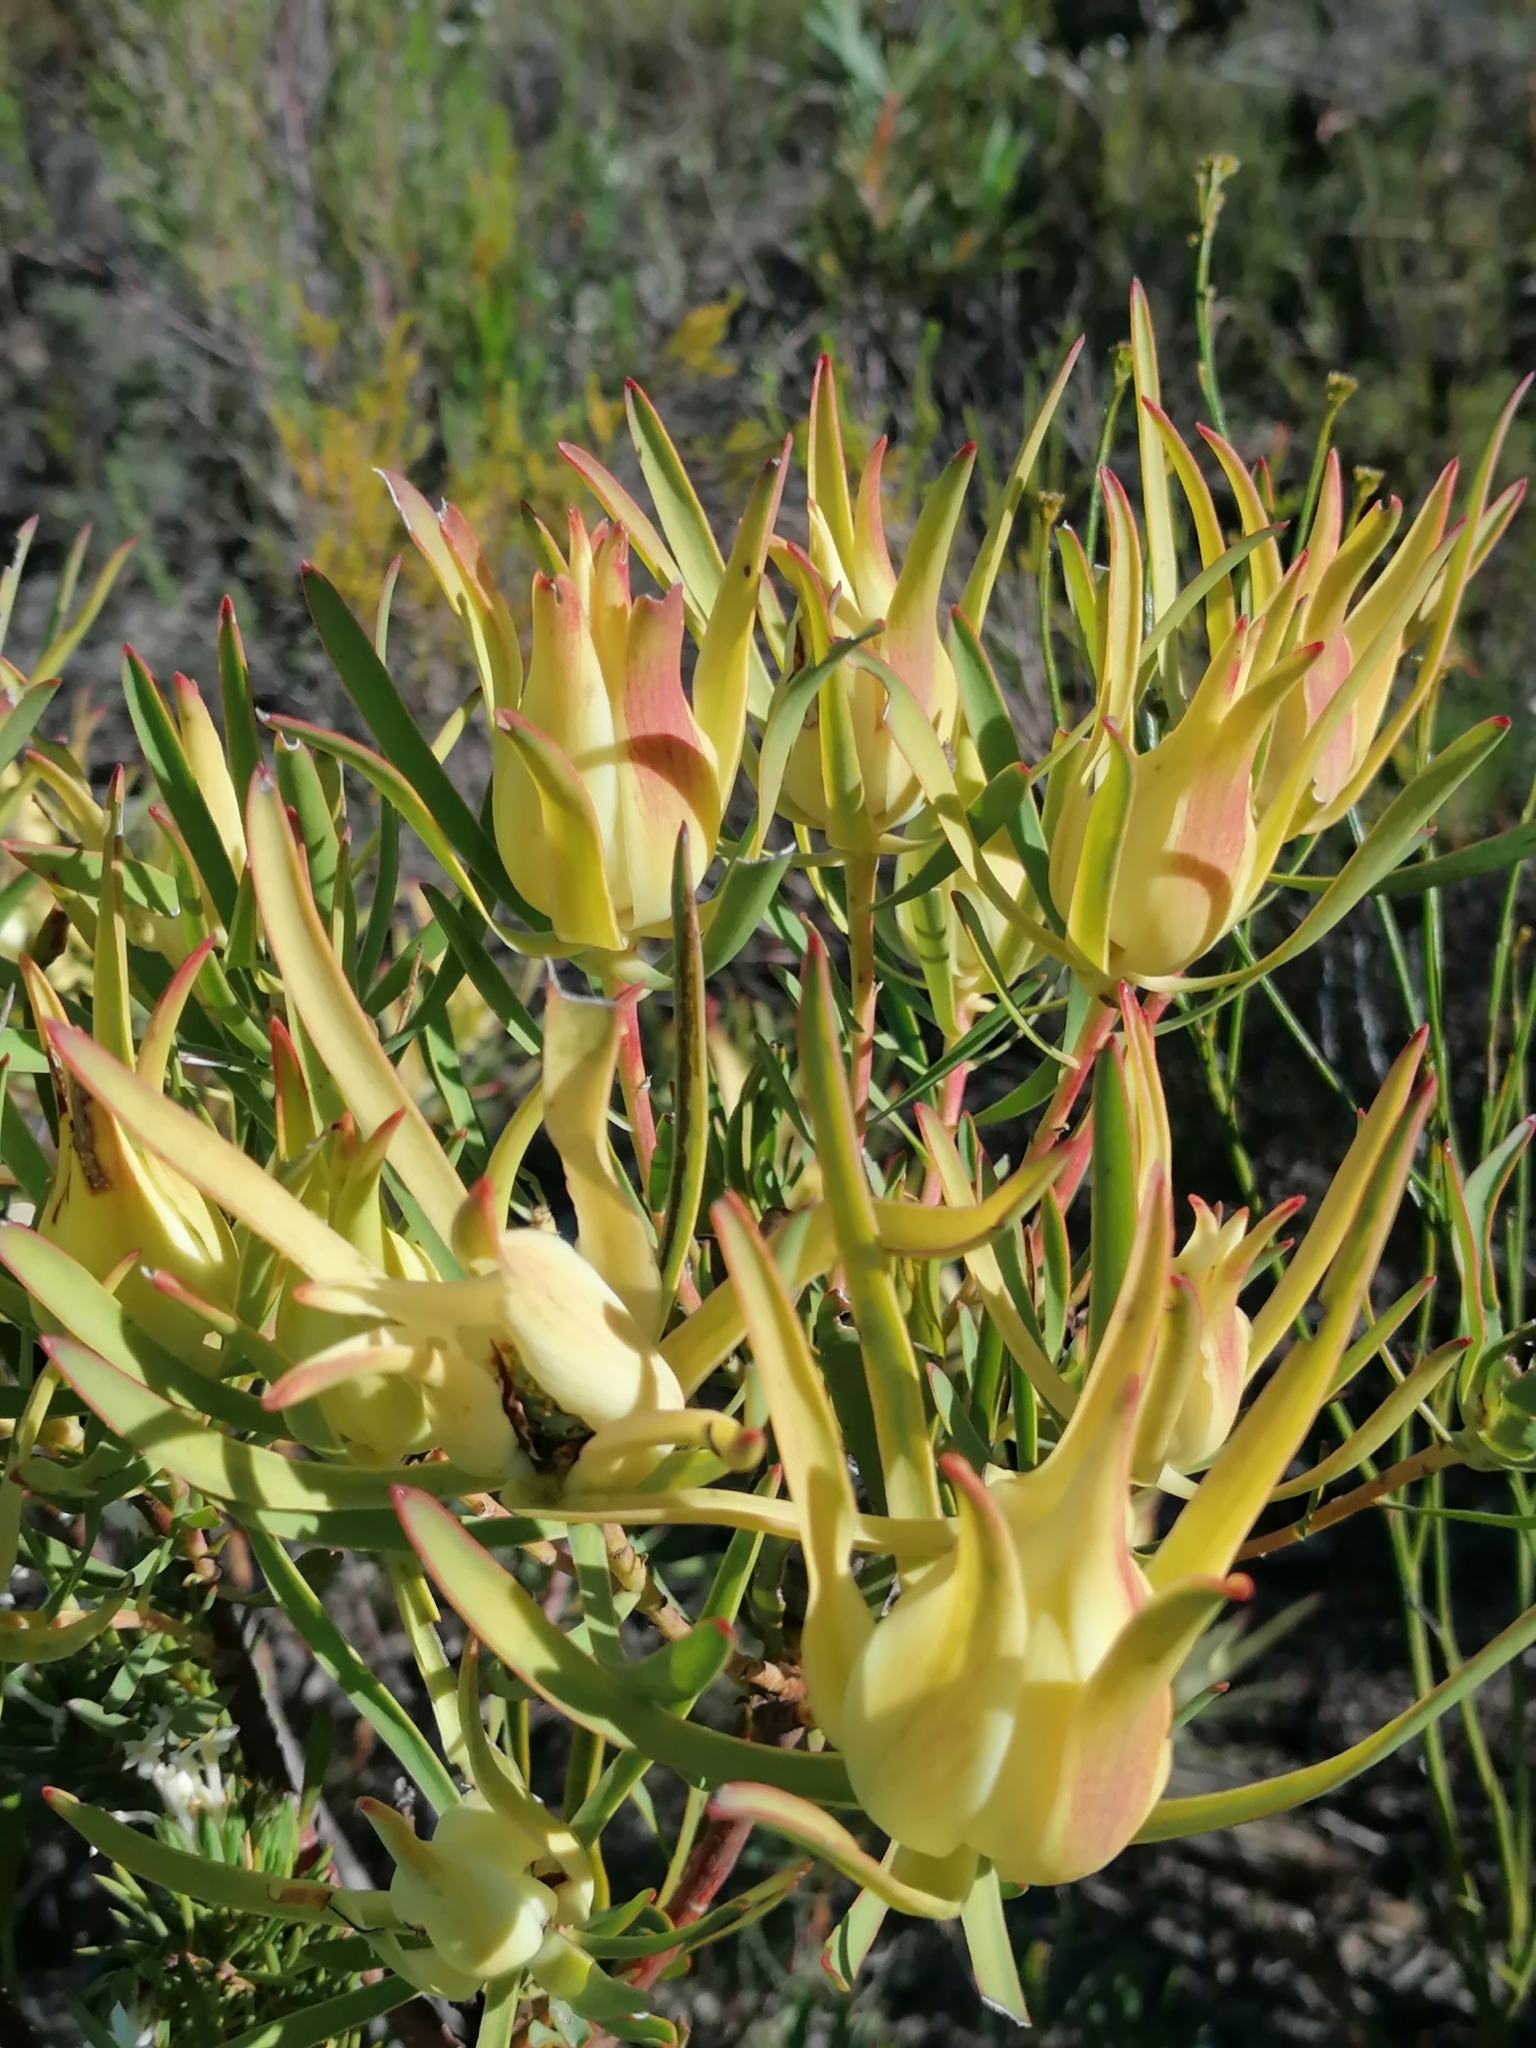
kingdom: Plantae
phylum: Tracheophyta
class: Magnoliopsida
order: Proteales
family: Proteaceae
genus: Leucadendron
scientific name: Leucadendron salignum
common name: Common sunshine conebush
